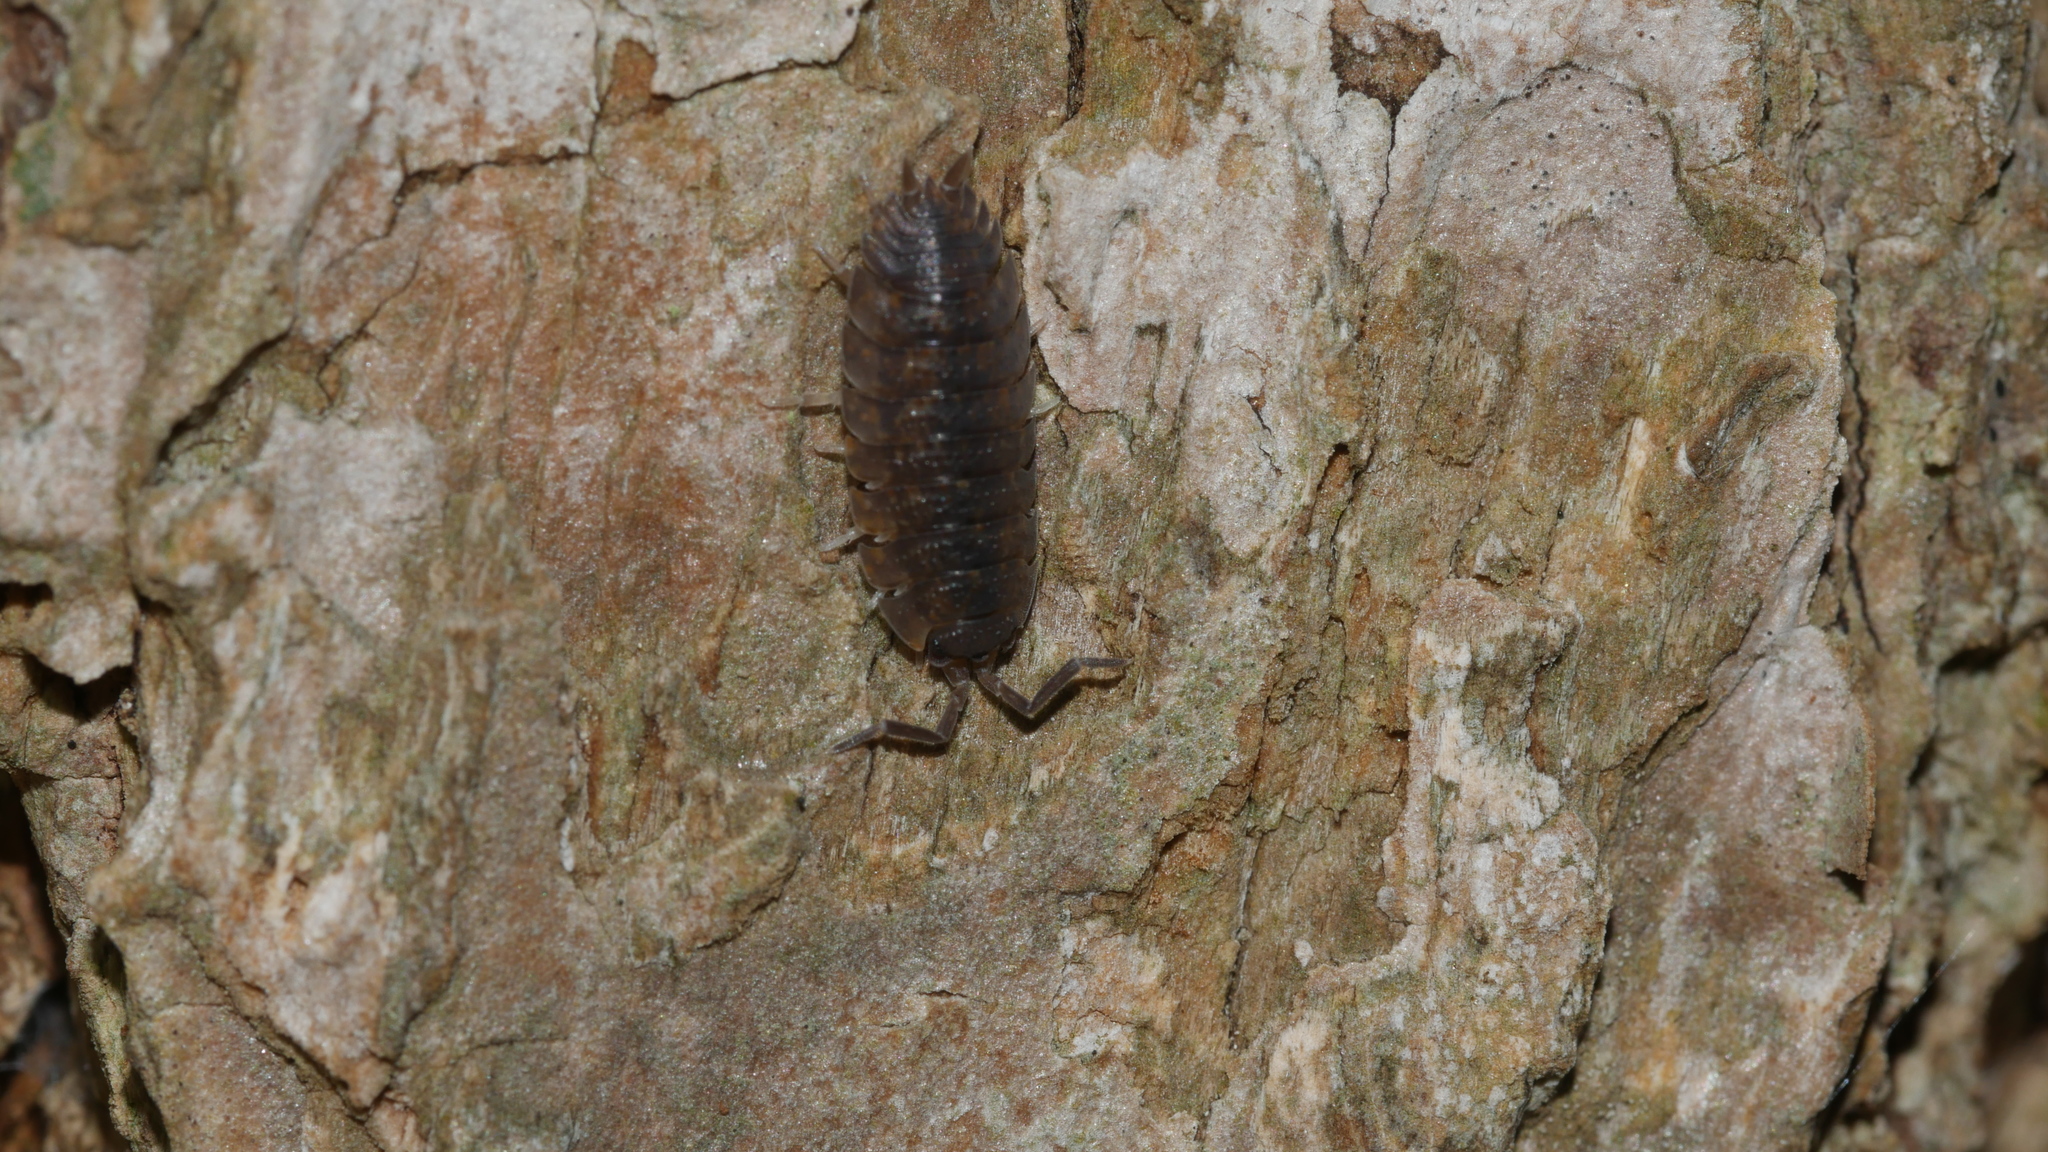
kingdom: Animalia
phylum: Arthropoda
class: Malacostraca
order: Isopoda
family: Porcellionidae
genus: Porcellio
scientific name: Porcellio scaber
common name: Common rough woodlouse
